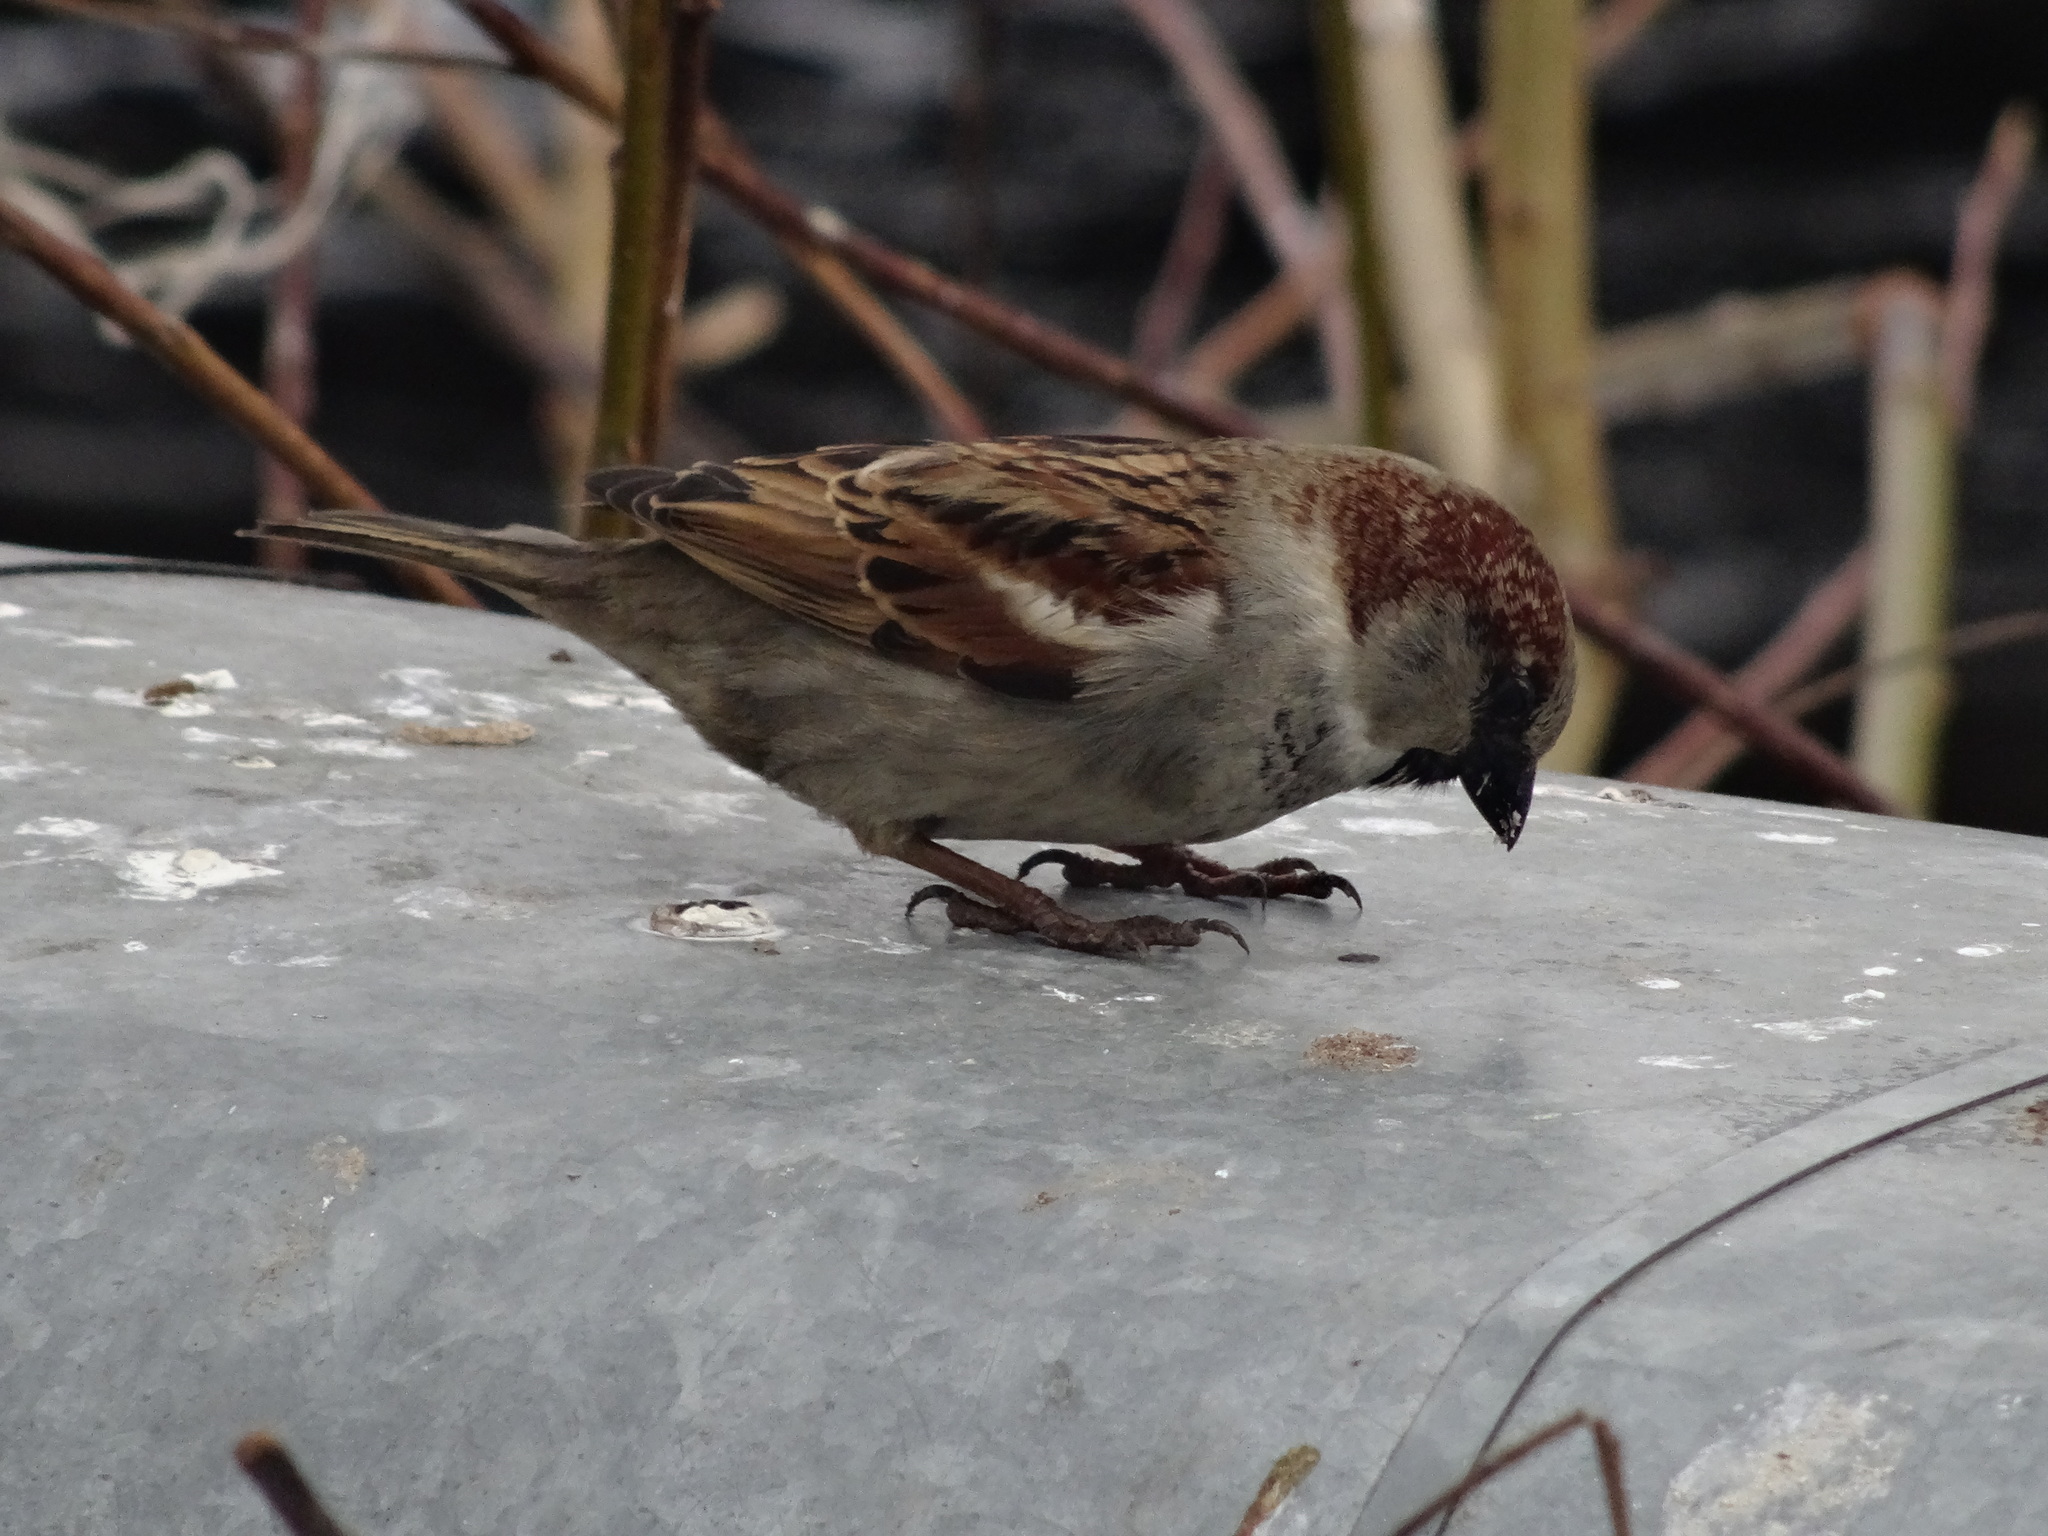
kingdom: Animalia
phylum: Chordata
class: Aves
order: Passeriformes
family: Passeridae
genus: Passer
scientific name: Passer domesticus
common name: House sparrow
